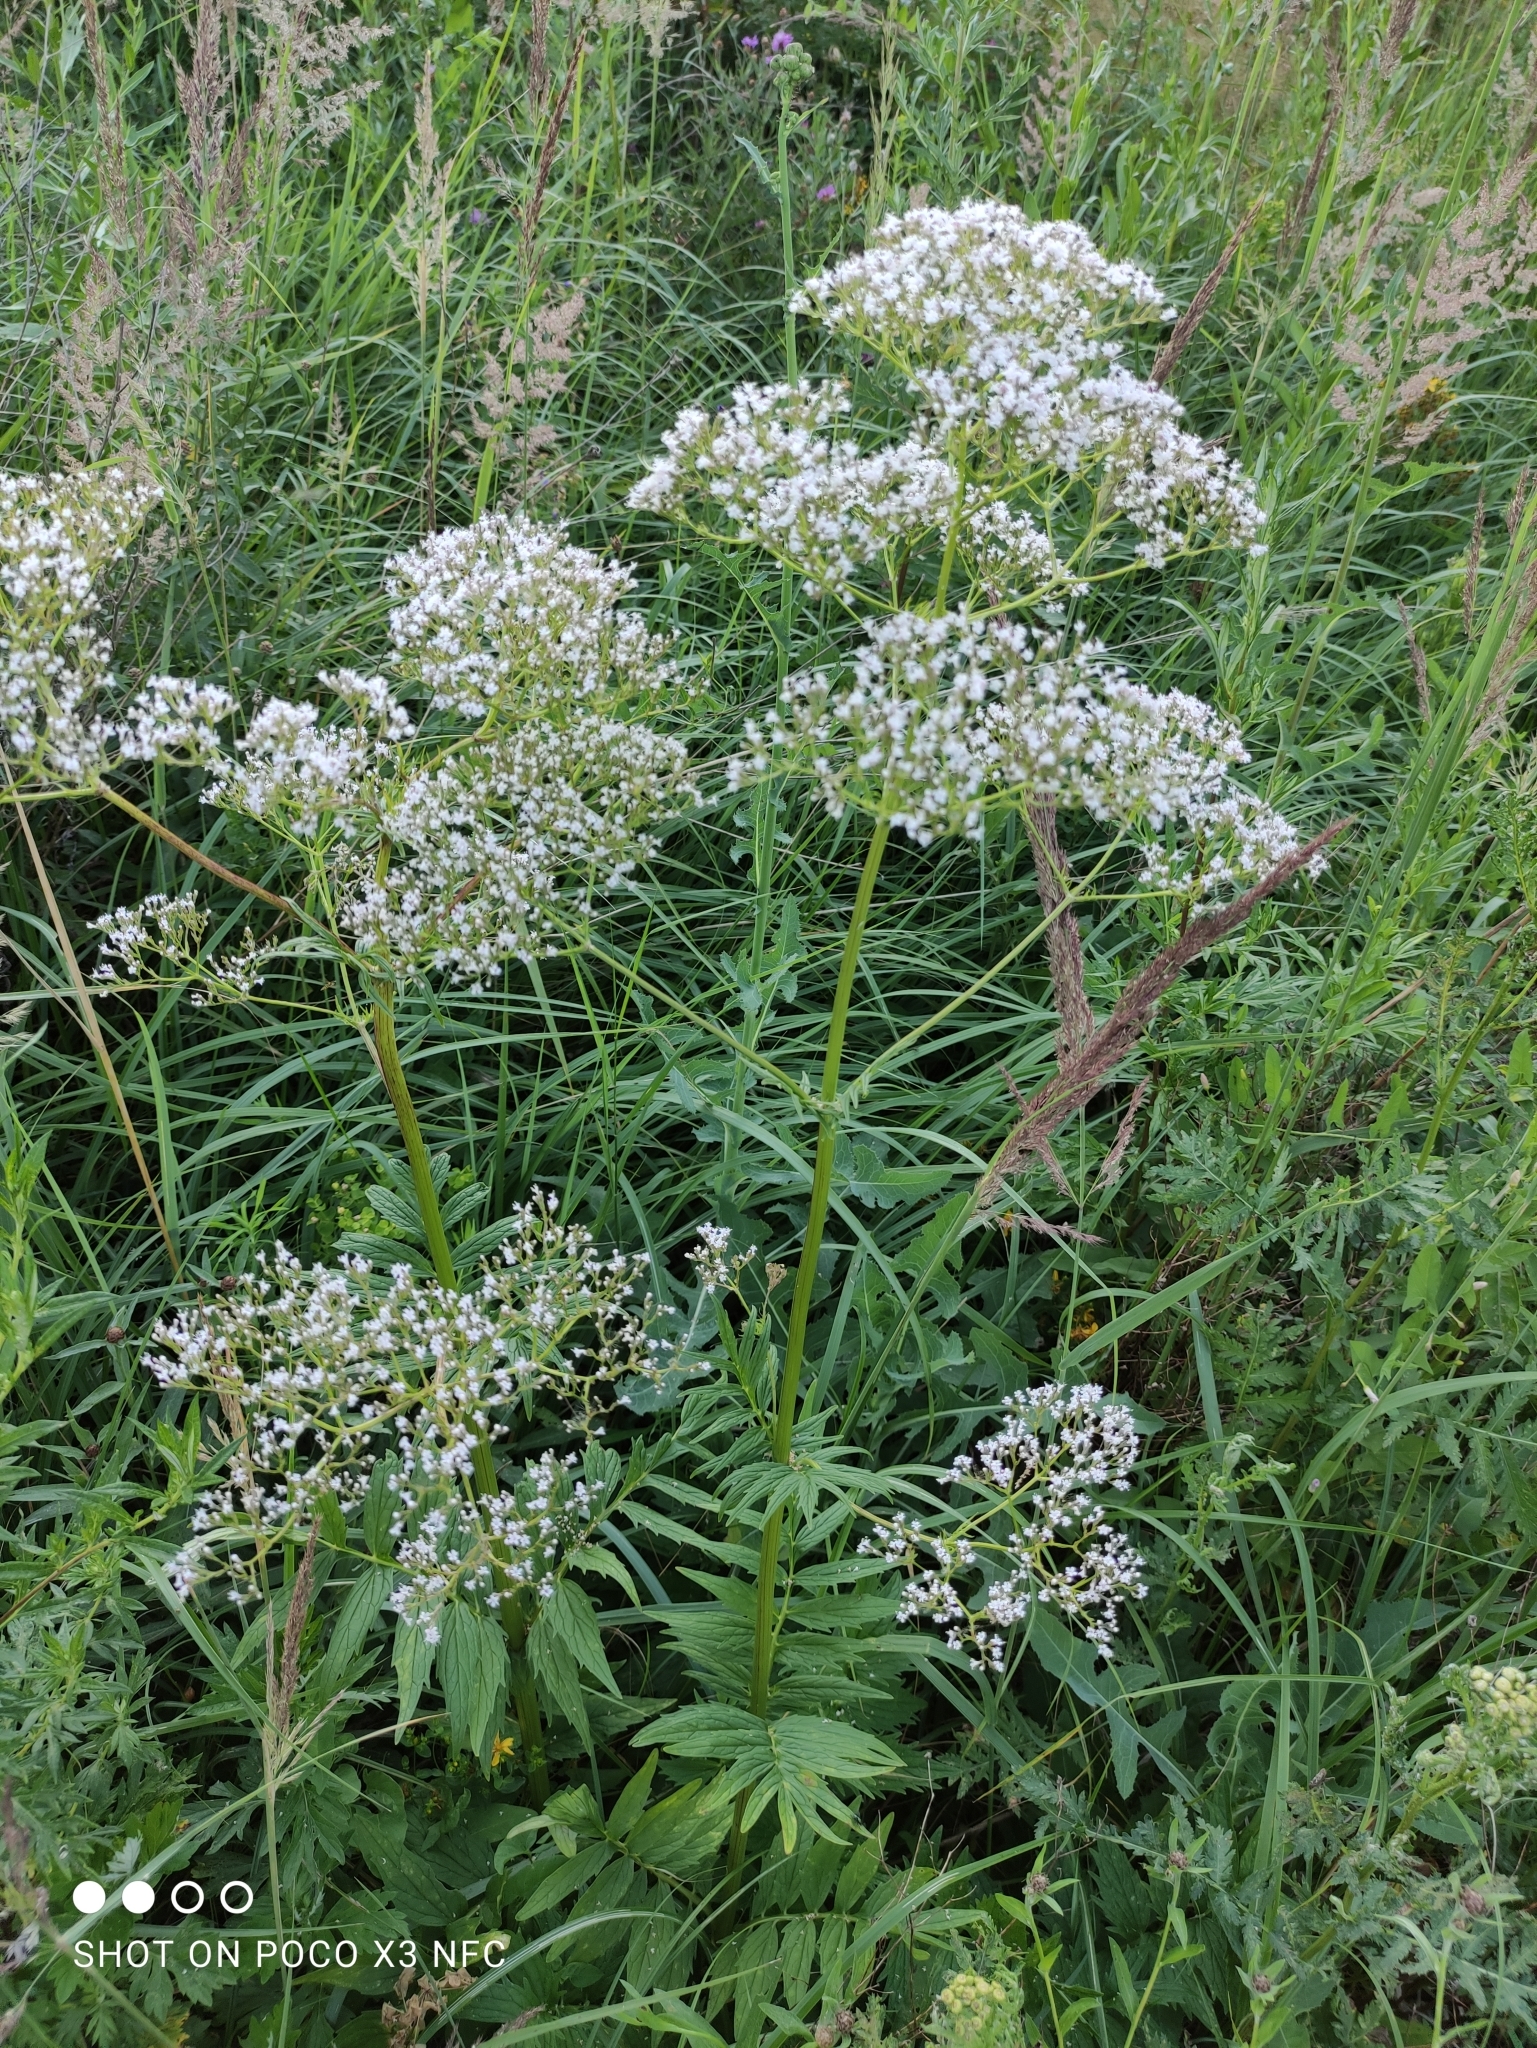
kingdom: Plantae
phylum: Tracheophyta
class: Magnoliopsida
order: Dipsacales
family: Caprifoliaceae
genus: Valeriana
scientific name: Valeriana officinalis
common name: Common valerian
